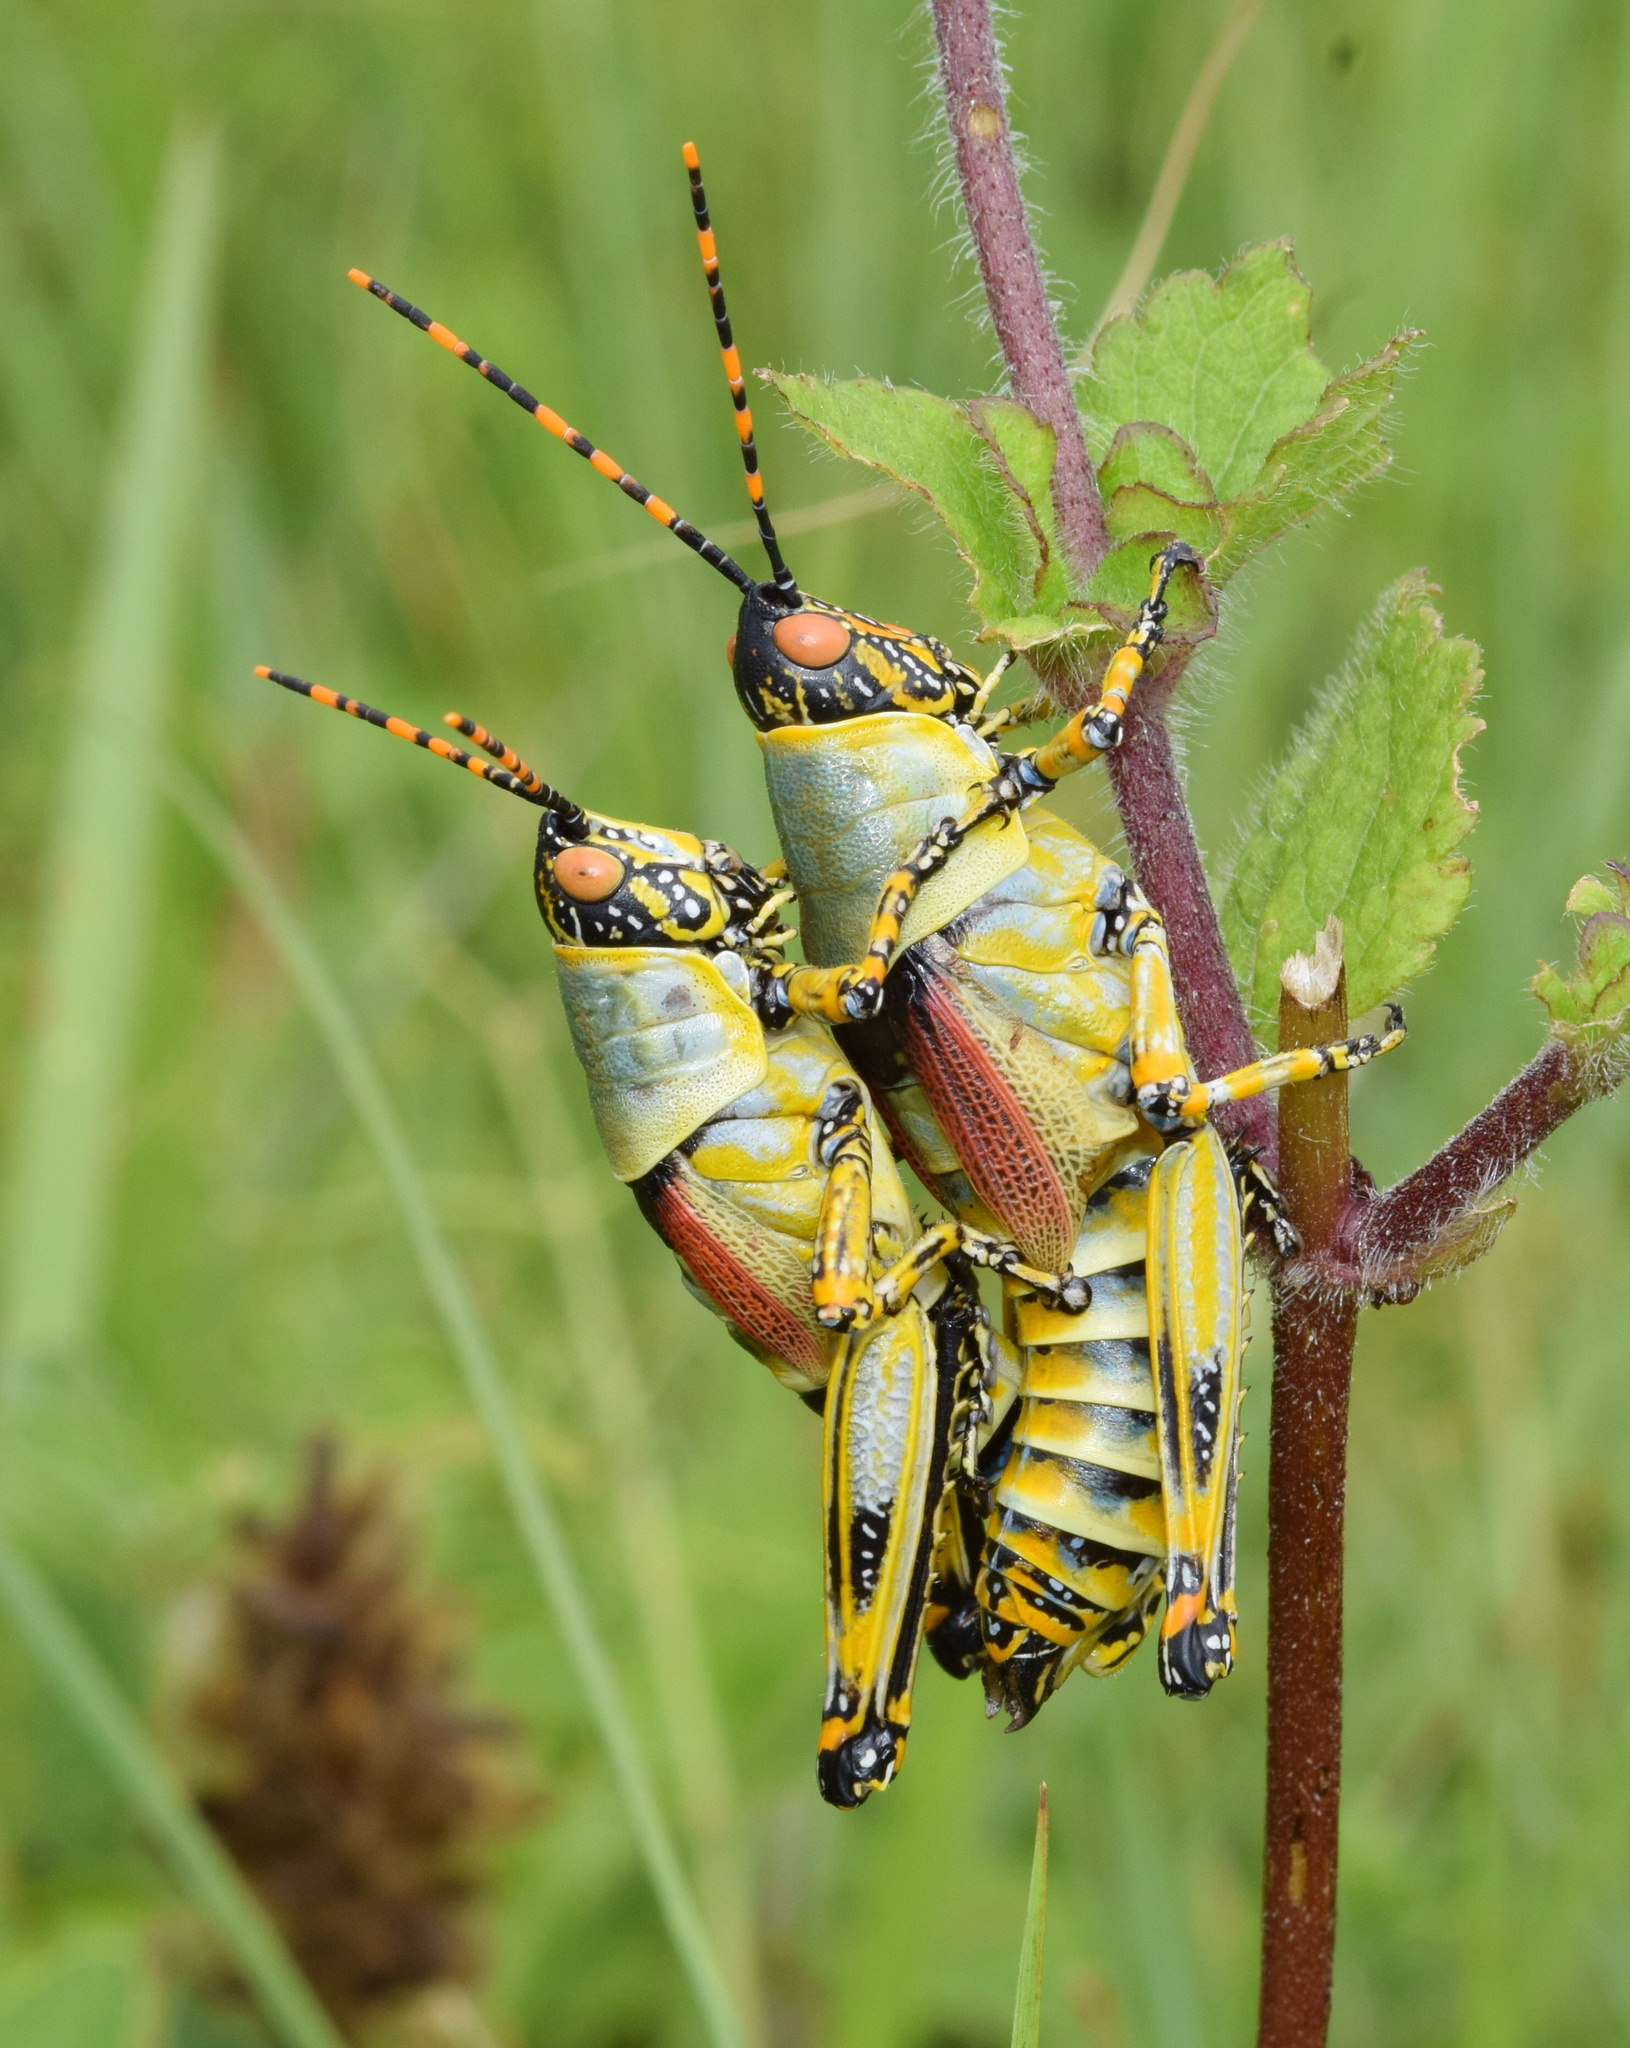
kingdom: Animalia
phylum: Arthropoda
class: Insecta
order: Orthoptera
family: Pyrgomorphidae
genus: Zonocerus
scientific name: Zonocerus elegans
